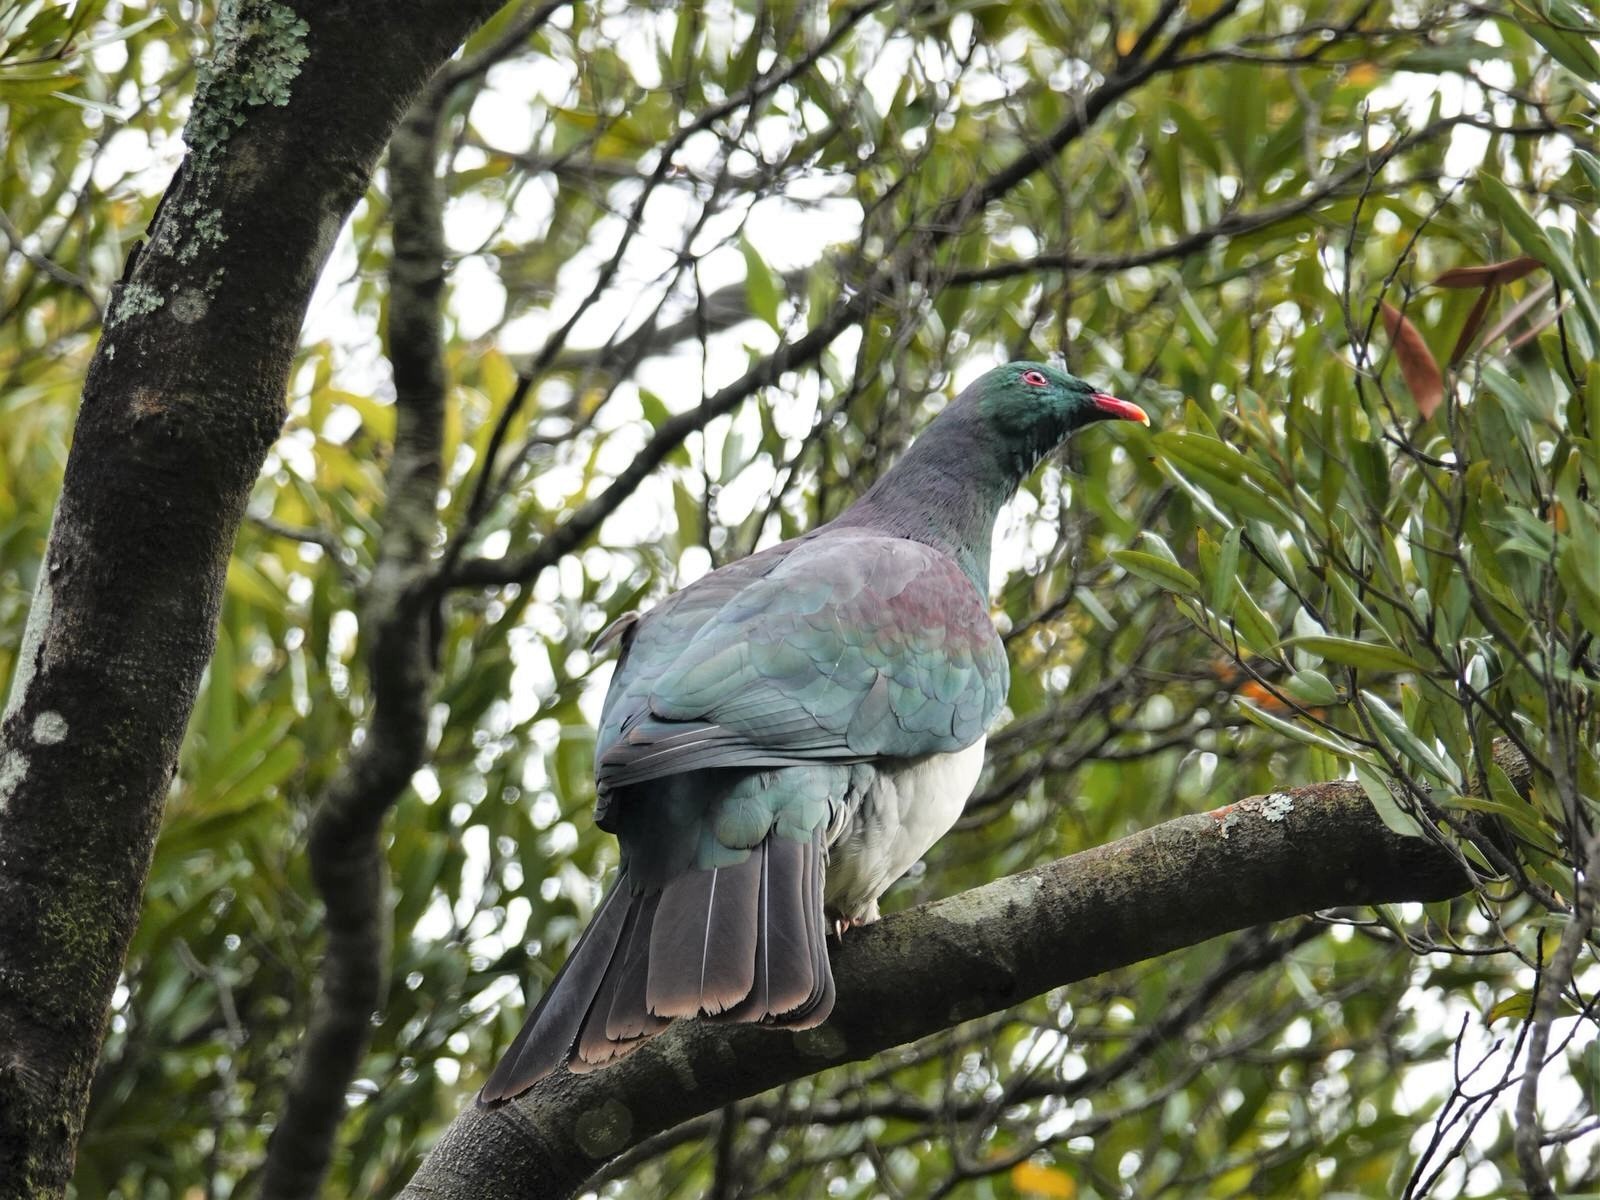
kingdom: Animalia
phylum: Chordata
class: Aves
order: Columbiformes
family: Columbidae
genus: Hemiphaga
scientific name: Hemiphaga novaeseelandiae
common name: New zealand pigeon
